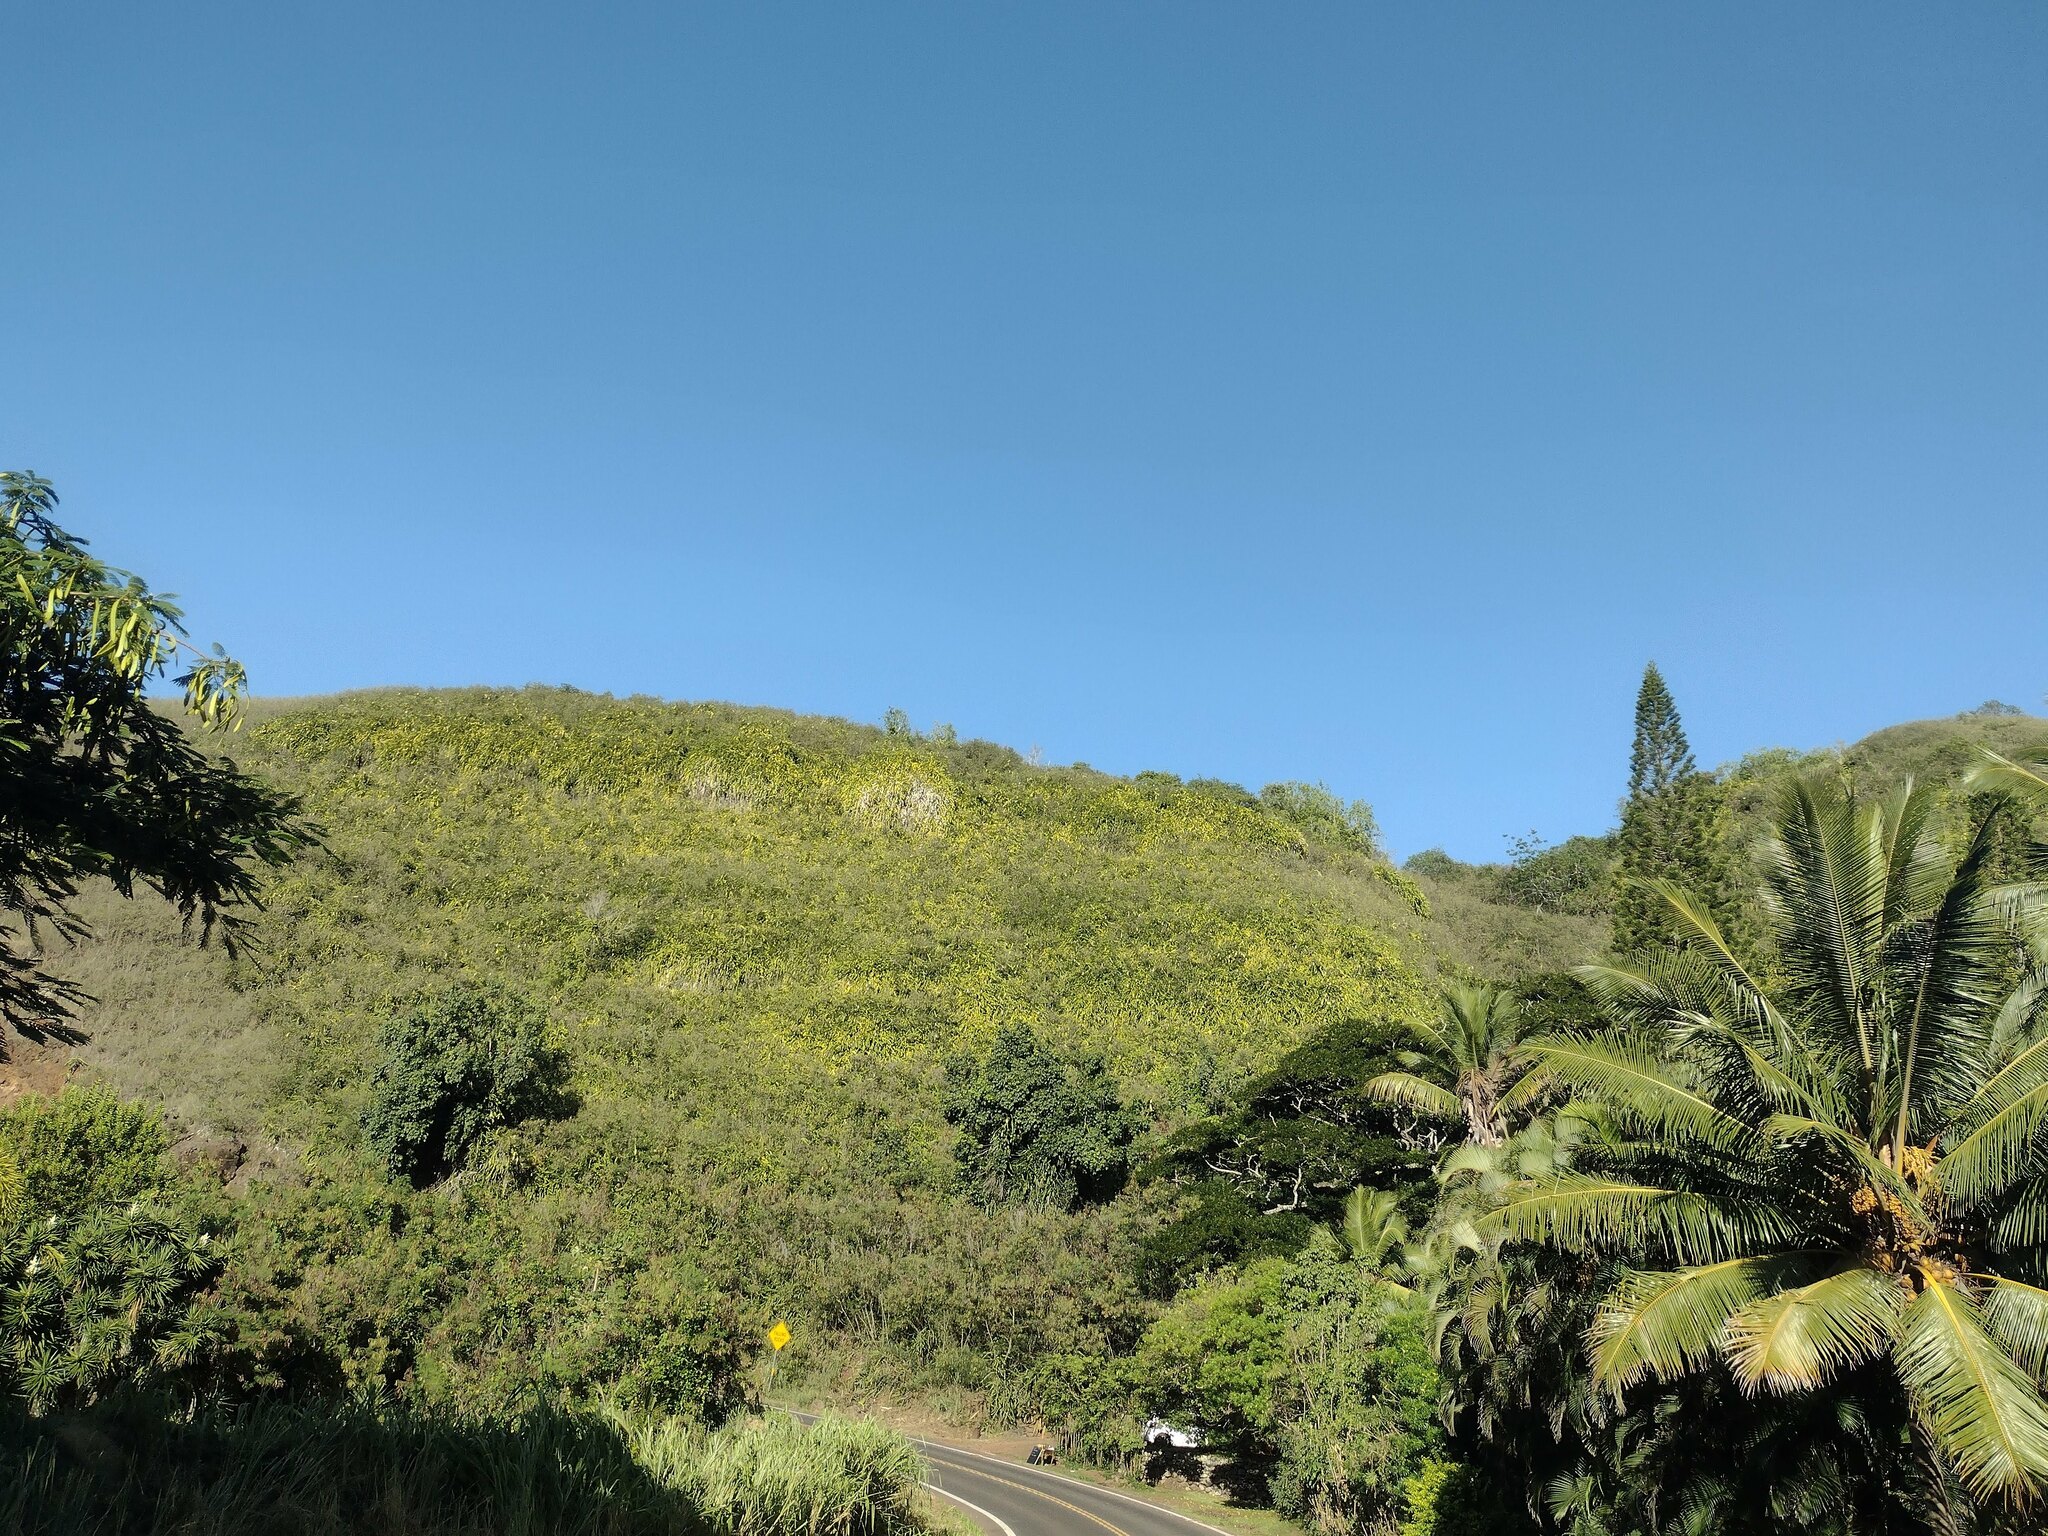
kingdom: Plantae
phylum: Tracheophyta
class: Magnoliopsida
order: Caryophyllales
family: Cactaceae
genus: Selenicereus
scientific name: Selenicereus undatus
